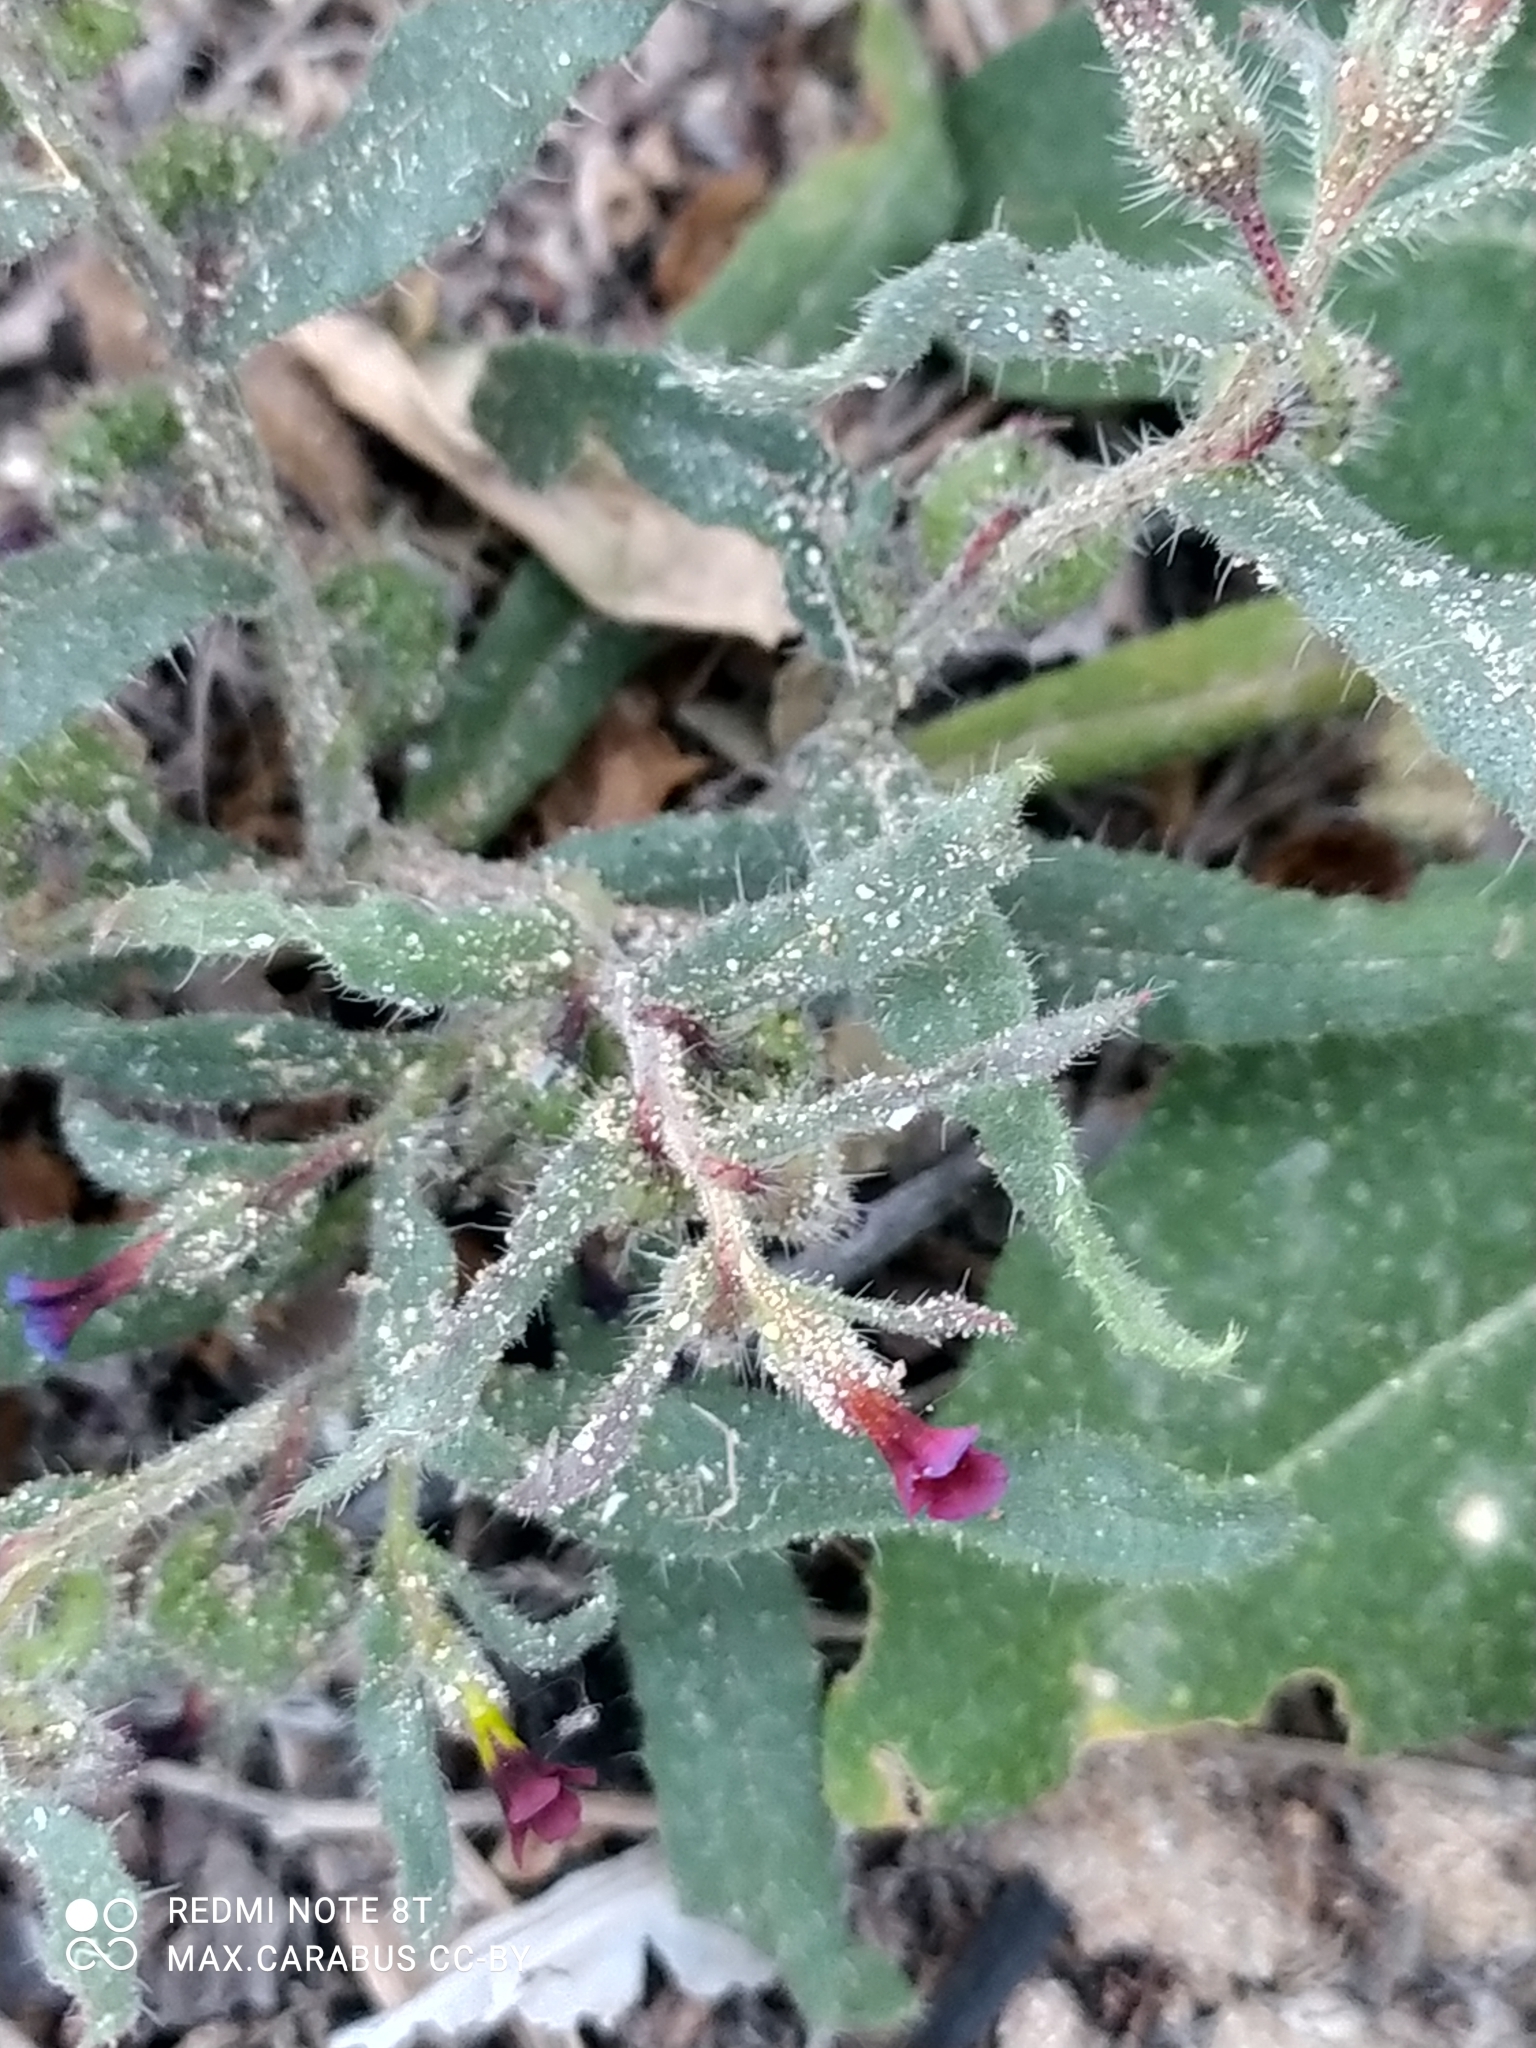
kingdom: Plantae
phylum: Tracheophyta
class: Magnoliopsida
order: Boraginales
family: Boraginaceae
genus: Nonea
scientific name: Nonea caspica
